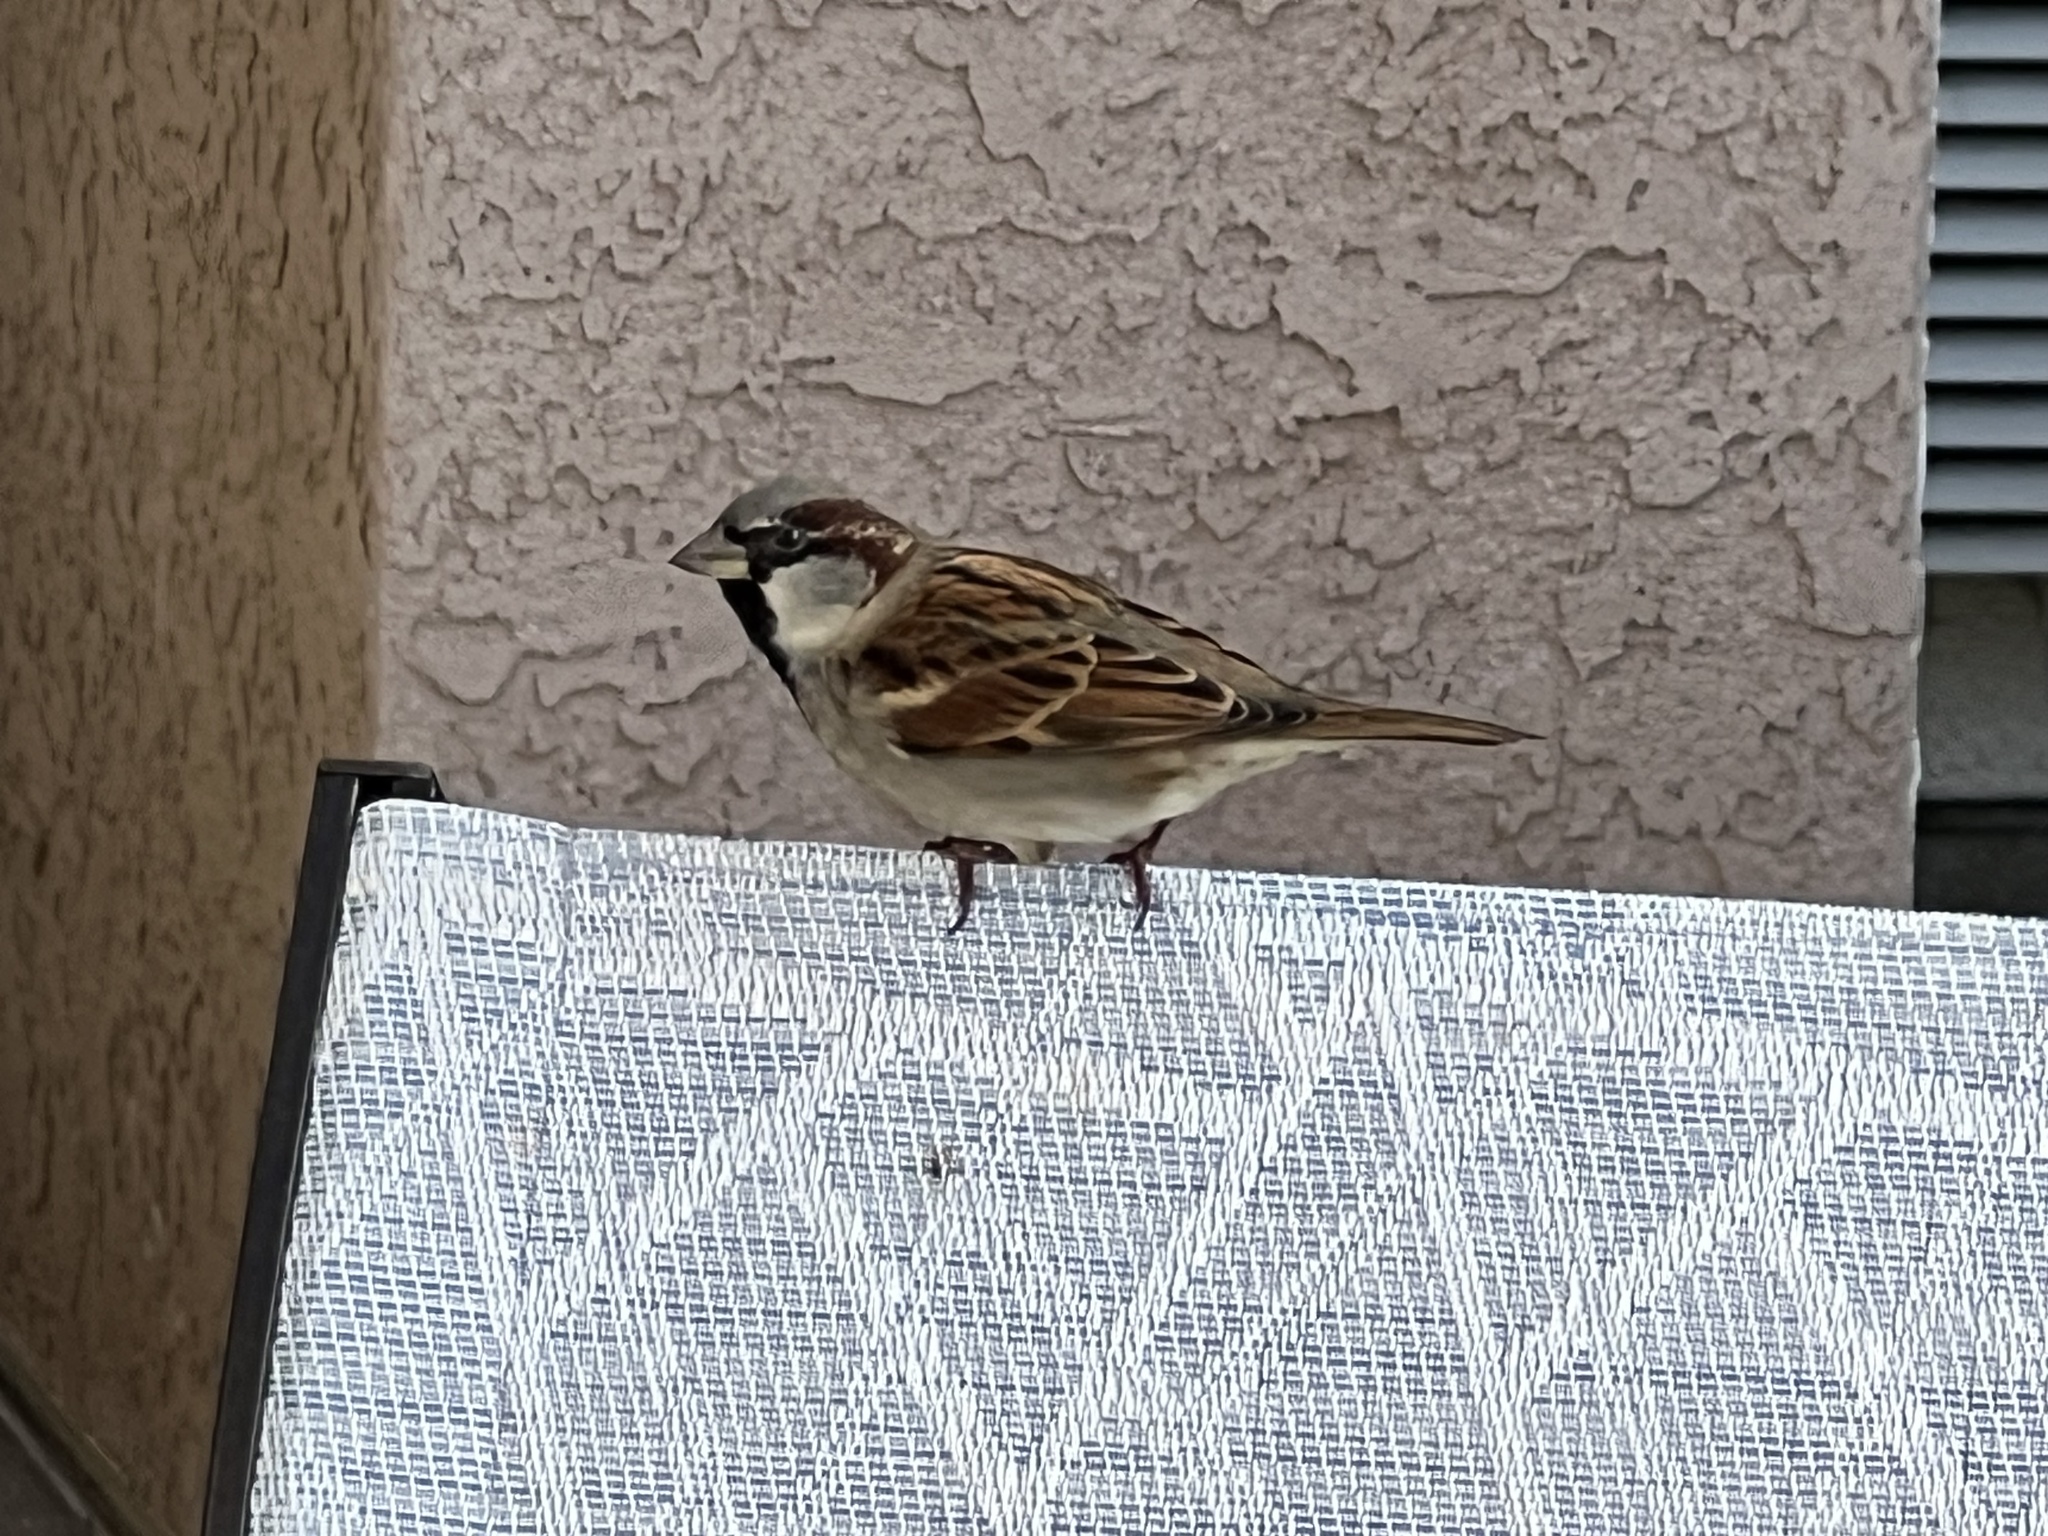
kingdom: Animalia
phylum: Chordata
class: Aves
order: Passeriformes
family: Passeridae
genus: Passer
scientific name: Passer domesticus
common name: House sparrow
